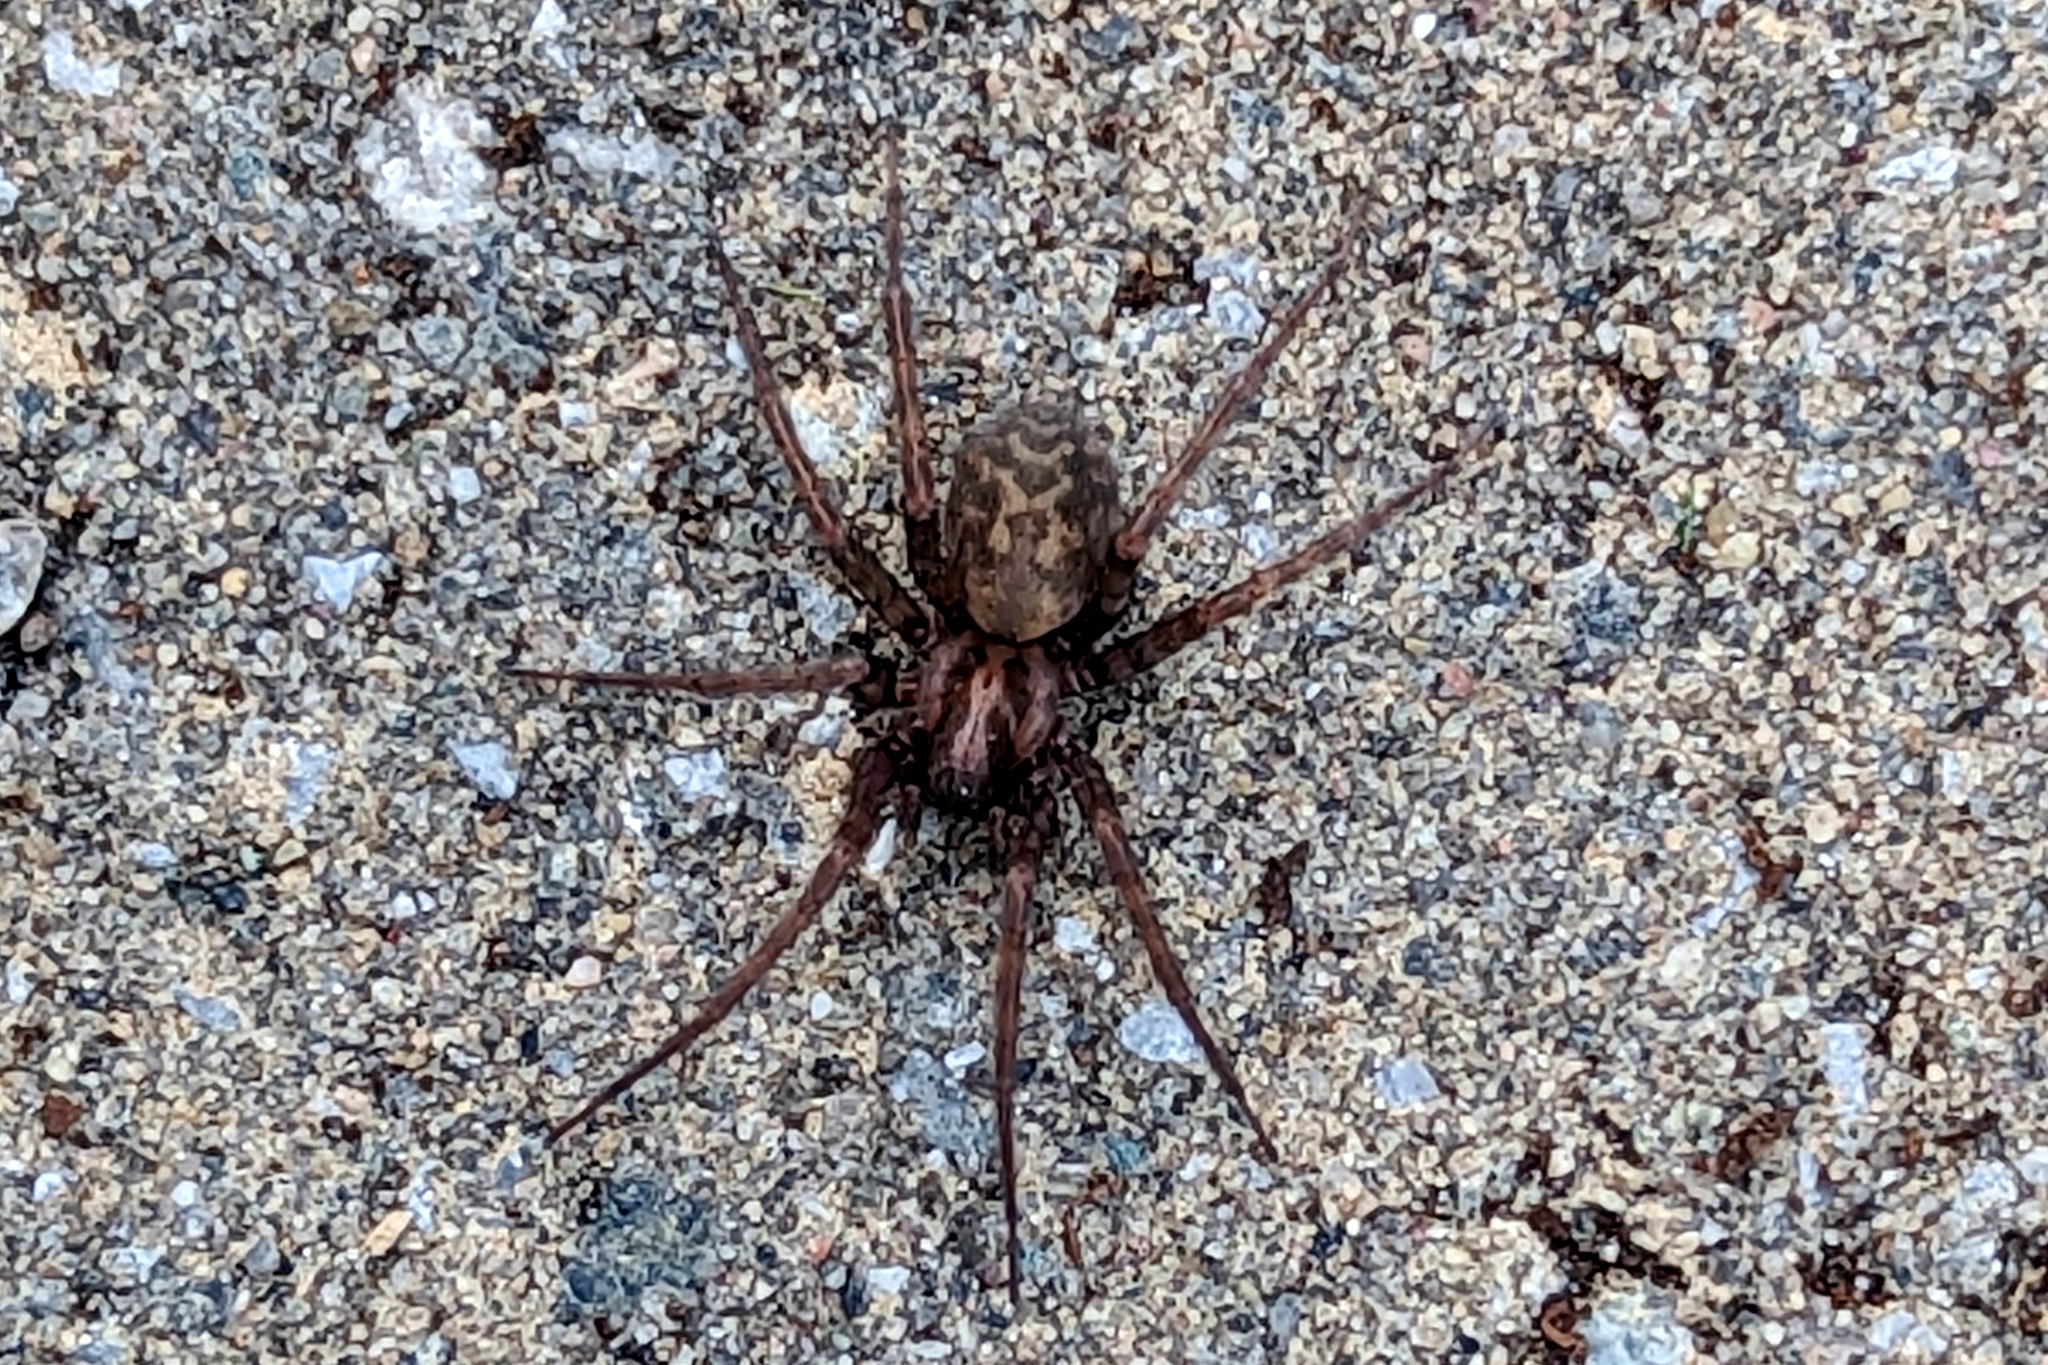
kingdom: Animalia
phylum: Arthropoda
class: Arachnida
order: Araneae
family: Agelenidae
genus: Tegenaria
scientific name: Tegenaria domestica
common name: Barn funnel weaver
